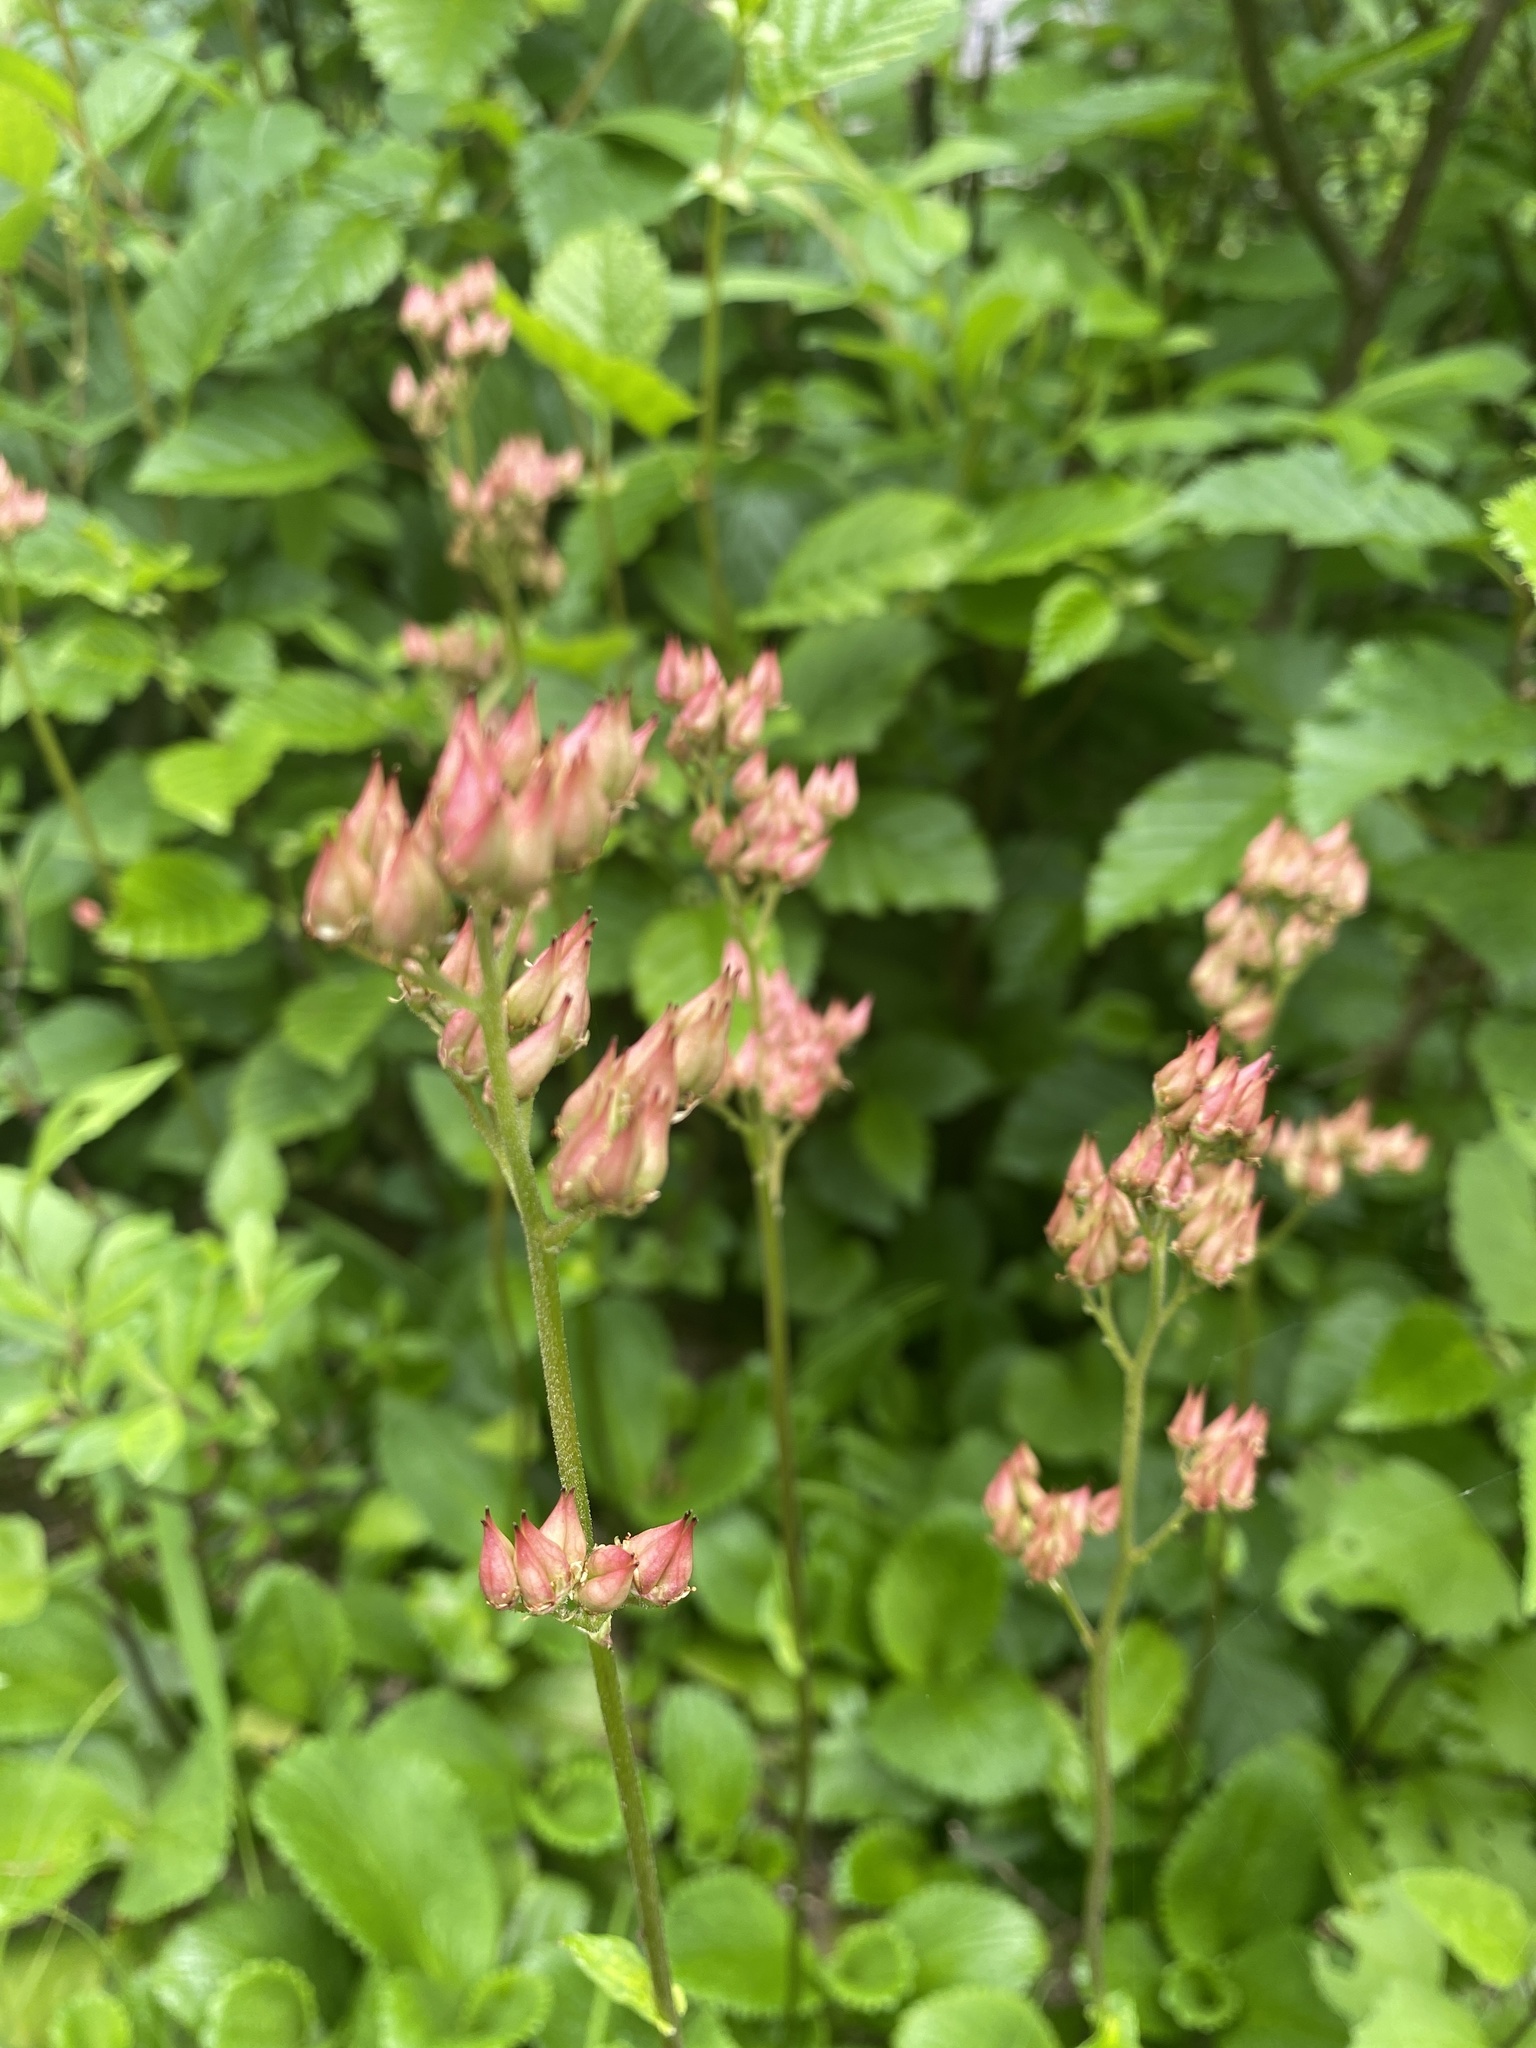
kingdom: Plantae
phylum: Tracheophyta
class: Magnoliopsida
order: Saxifragales
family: Saxifragaceae
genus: Leptarrhena
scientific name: Leptarrhena pyrolifolia
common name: Leatherleaf-saxifrage
